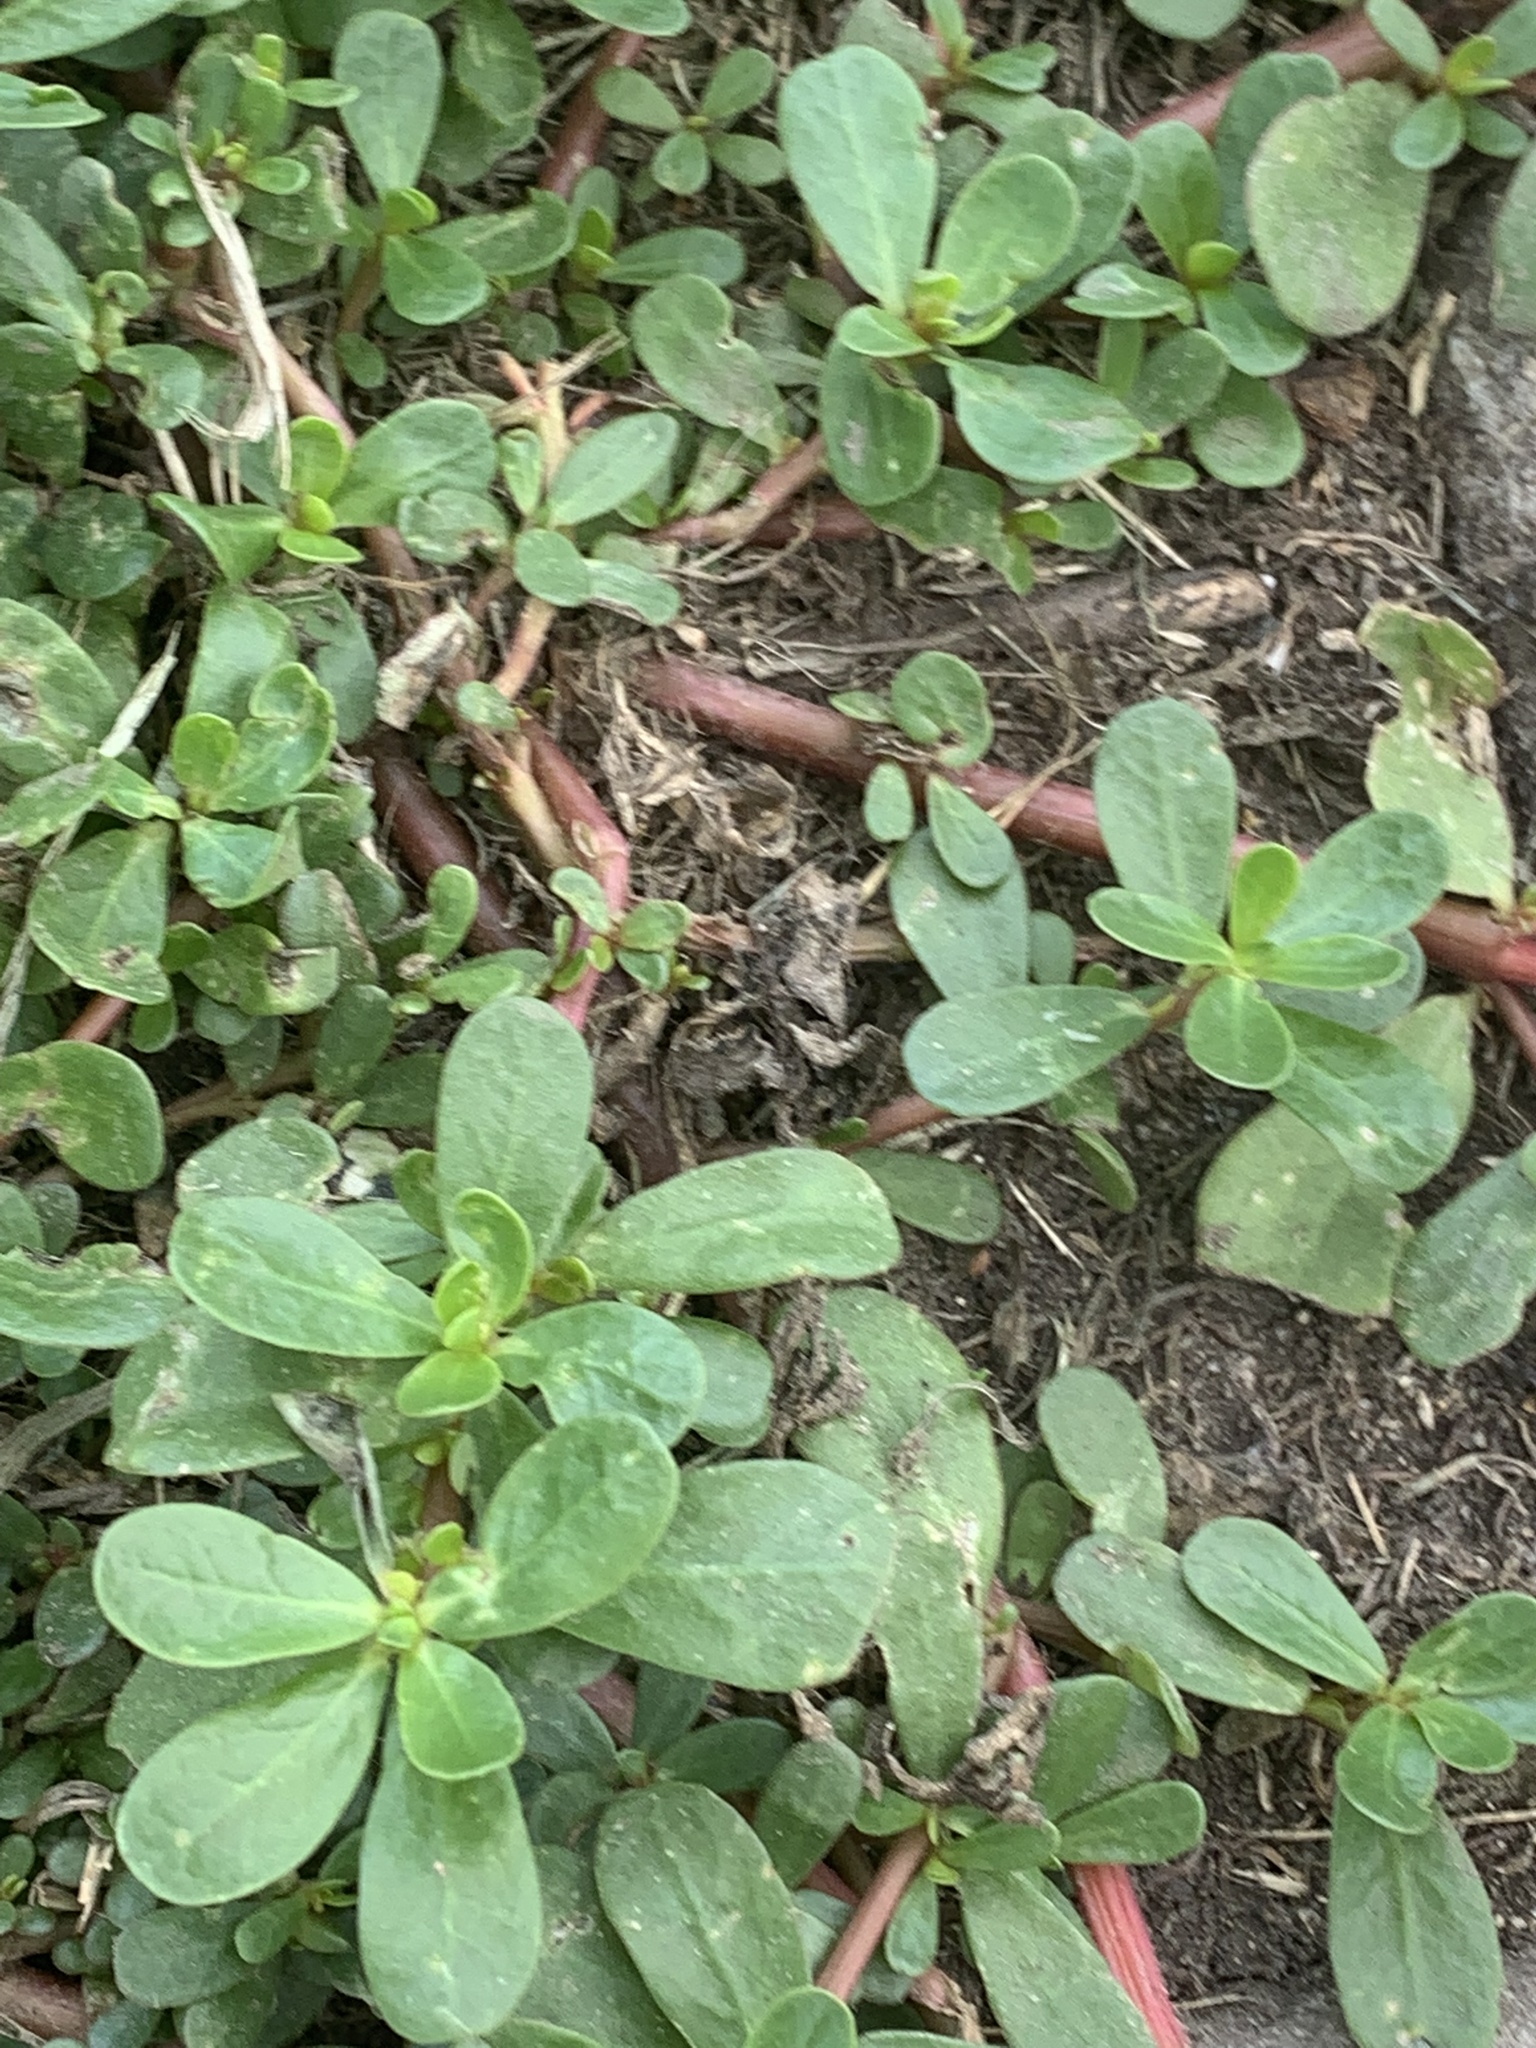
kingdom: Plantae
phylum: Tracheophyta
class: Magnoliopsida
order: Caryophyllales
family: Portulacaceae
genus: Portulaca
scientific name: Portulaca oleracea
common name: Common purslane
